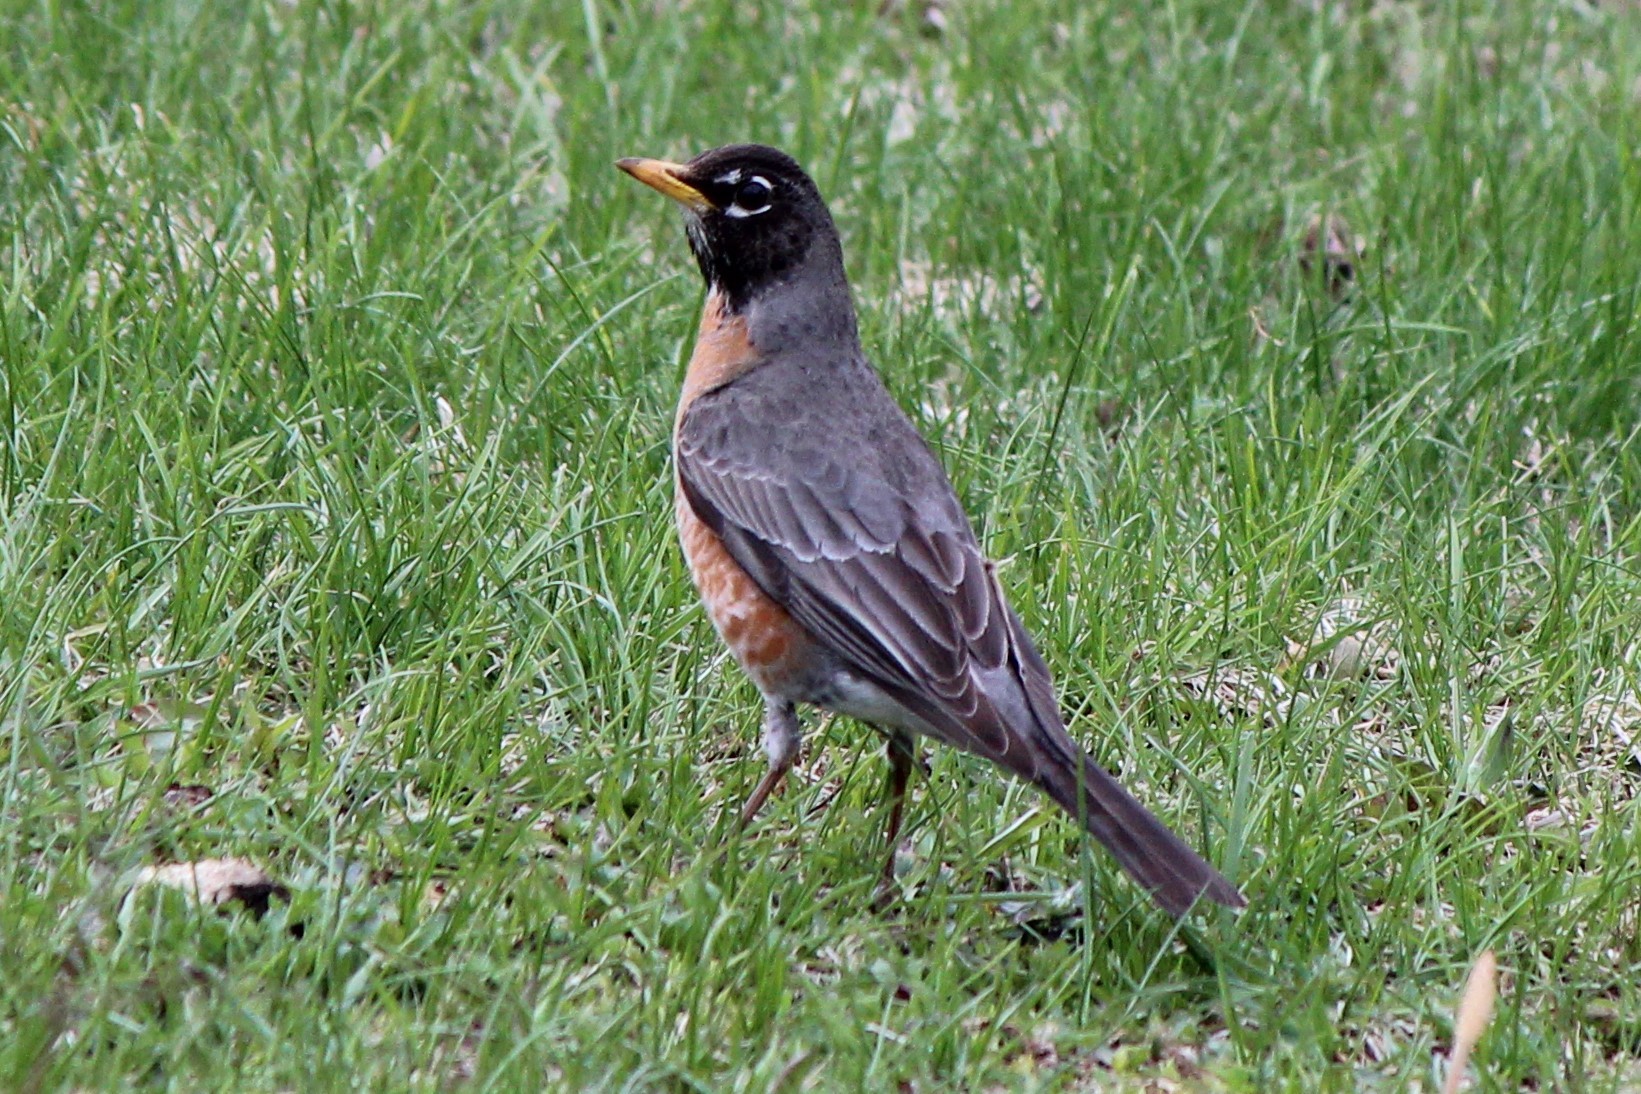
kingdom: Animalia
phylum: Chordata
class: Aves
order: Passeriformes
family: Turdidae
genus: Turdus
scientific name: Turdus migratorius
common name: American robin
